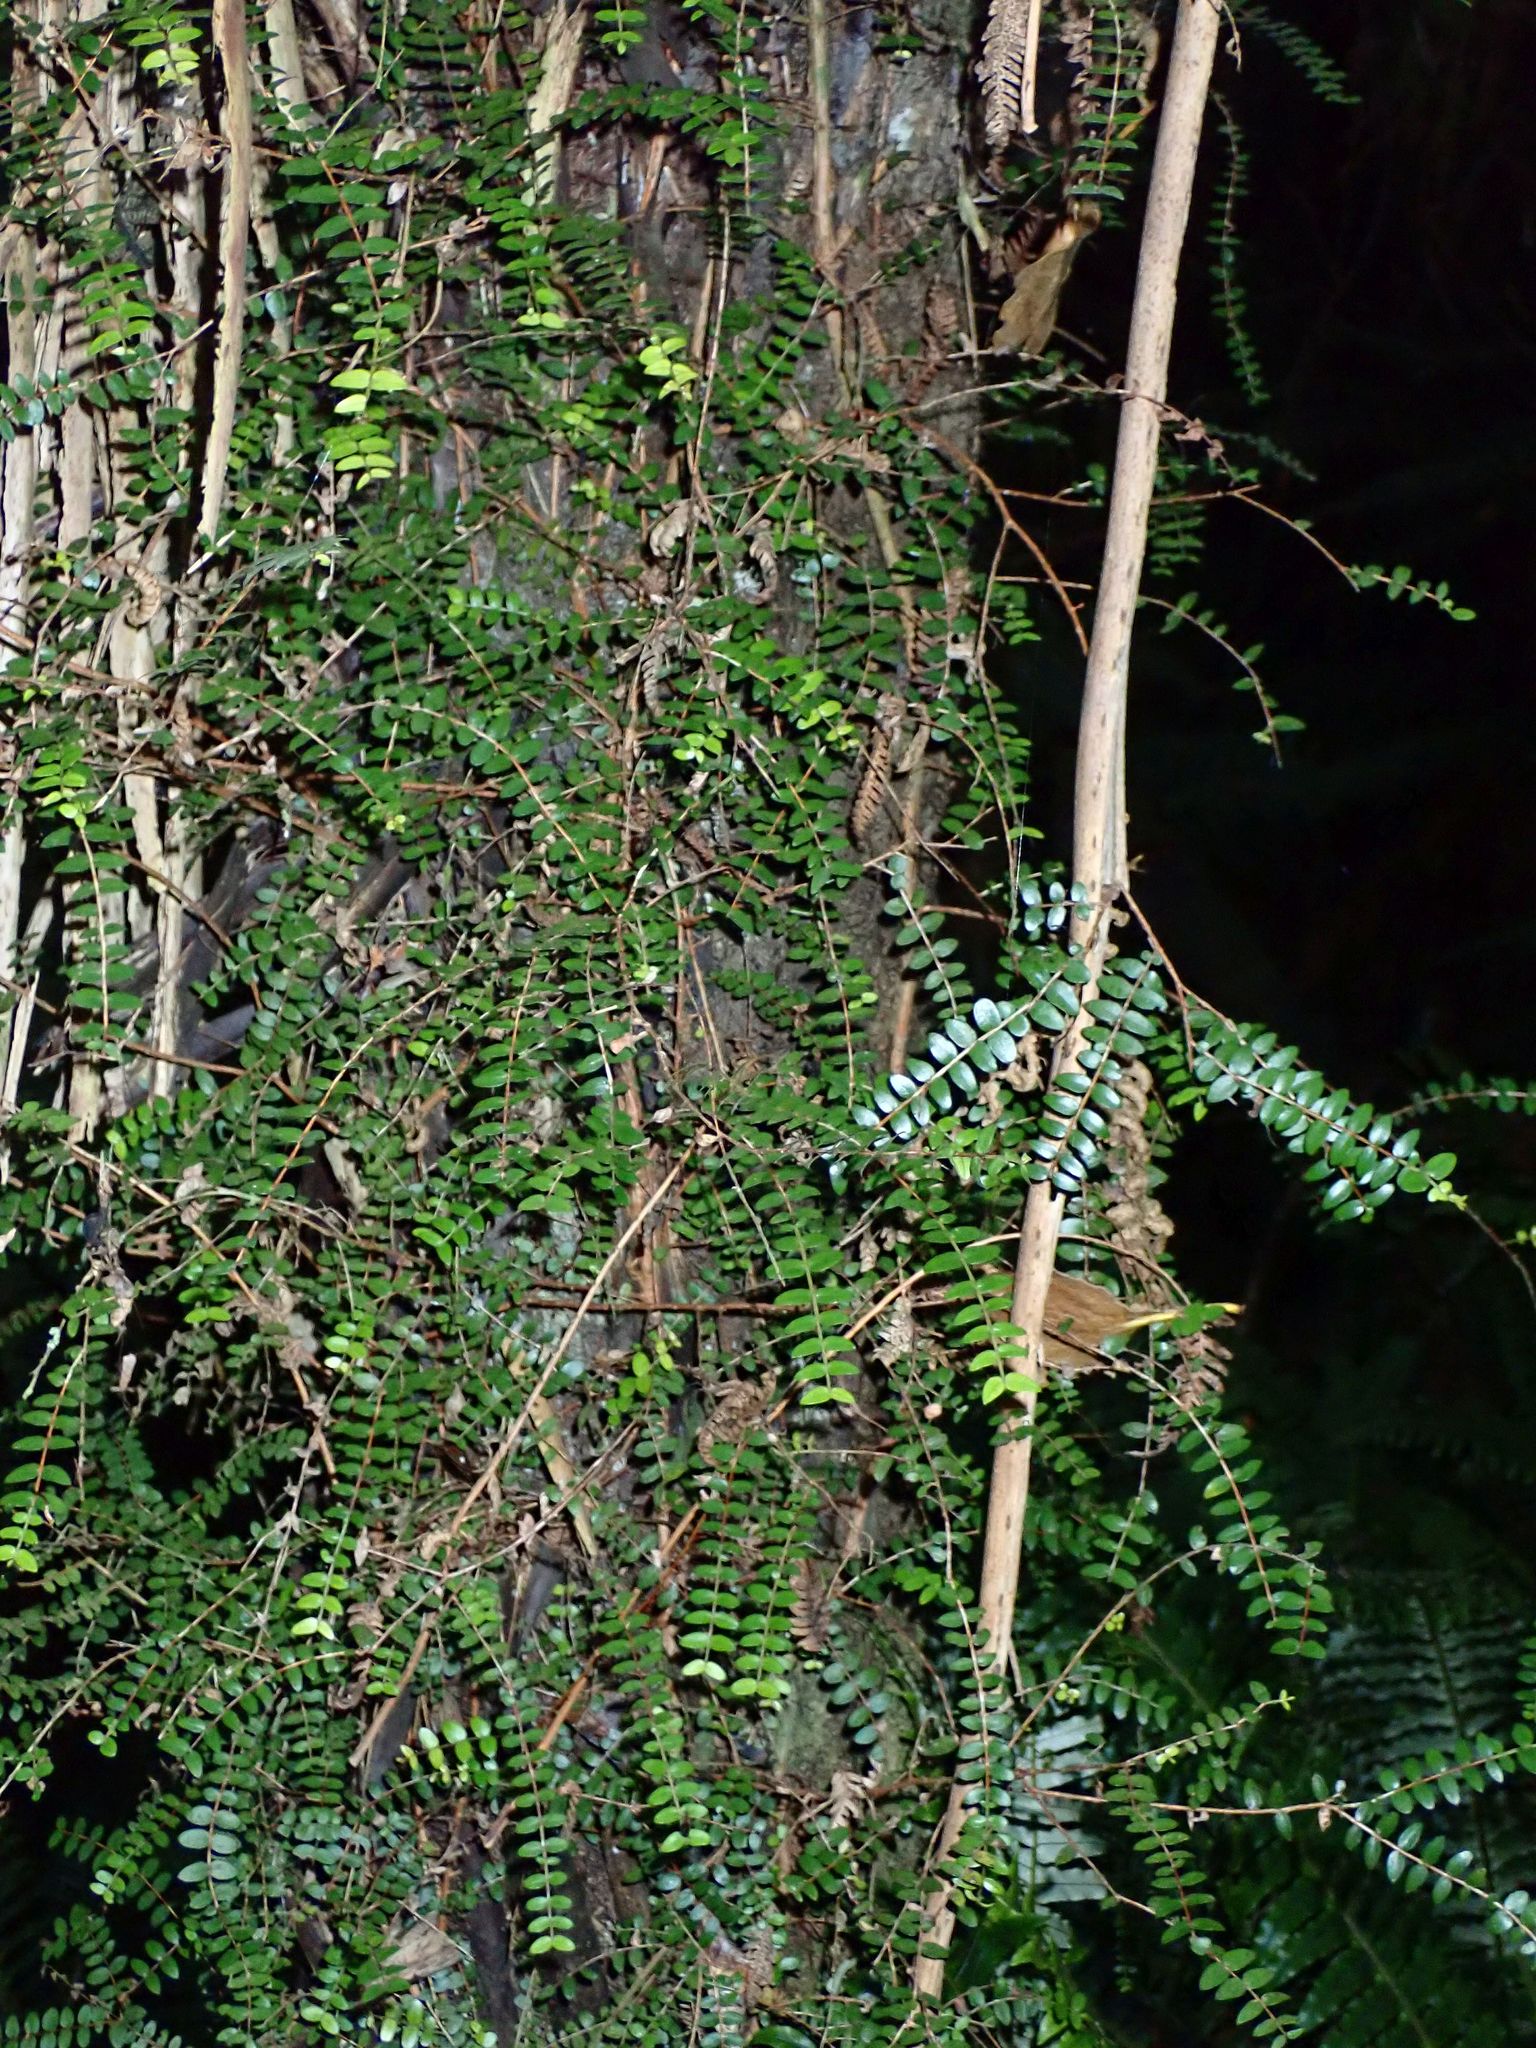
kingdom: Plantae
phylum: Tracheophyta
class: Magnoliopsida
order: Myrtales
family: Myrtaceae
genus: Metrosideros
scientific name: Metrosideros diffusa
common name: Small ratavine
